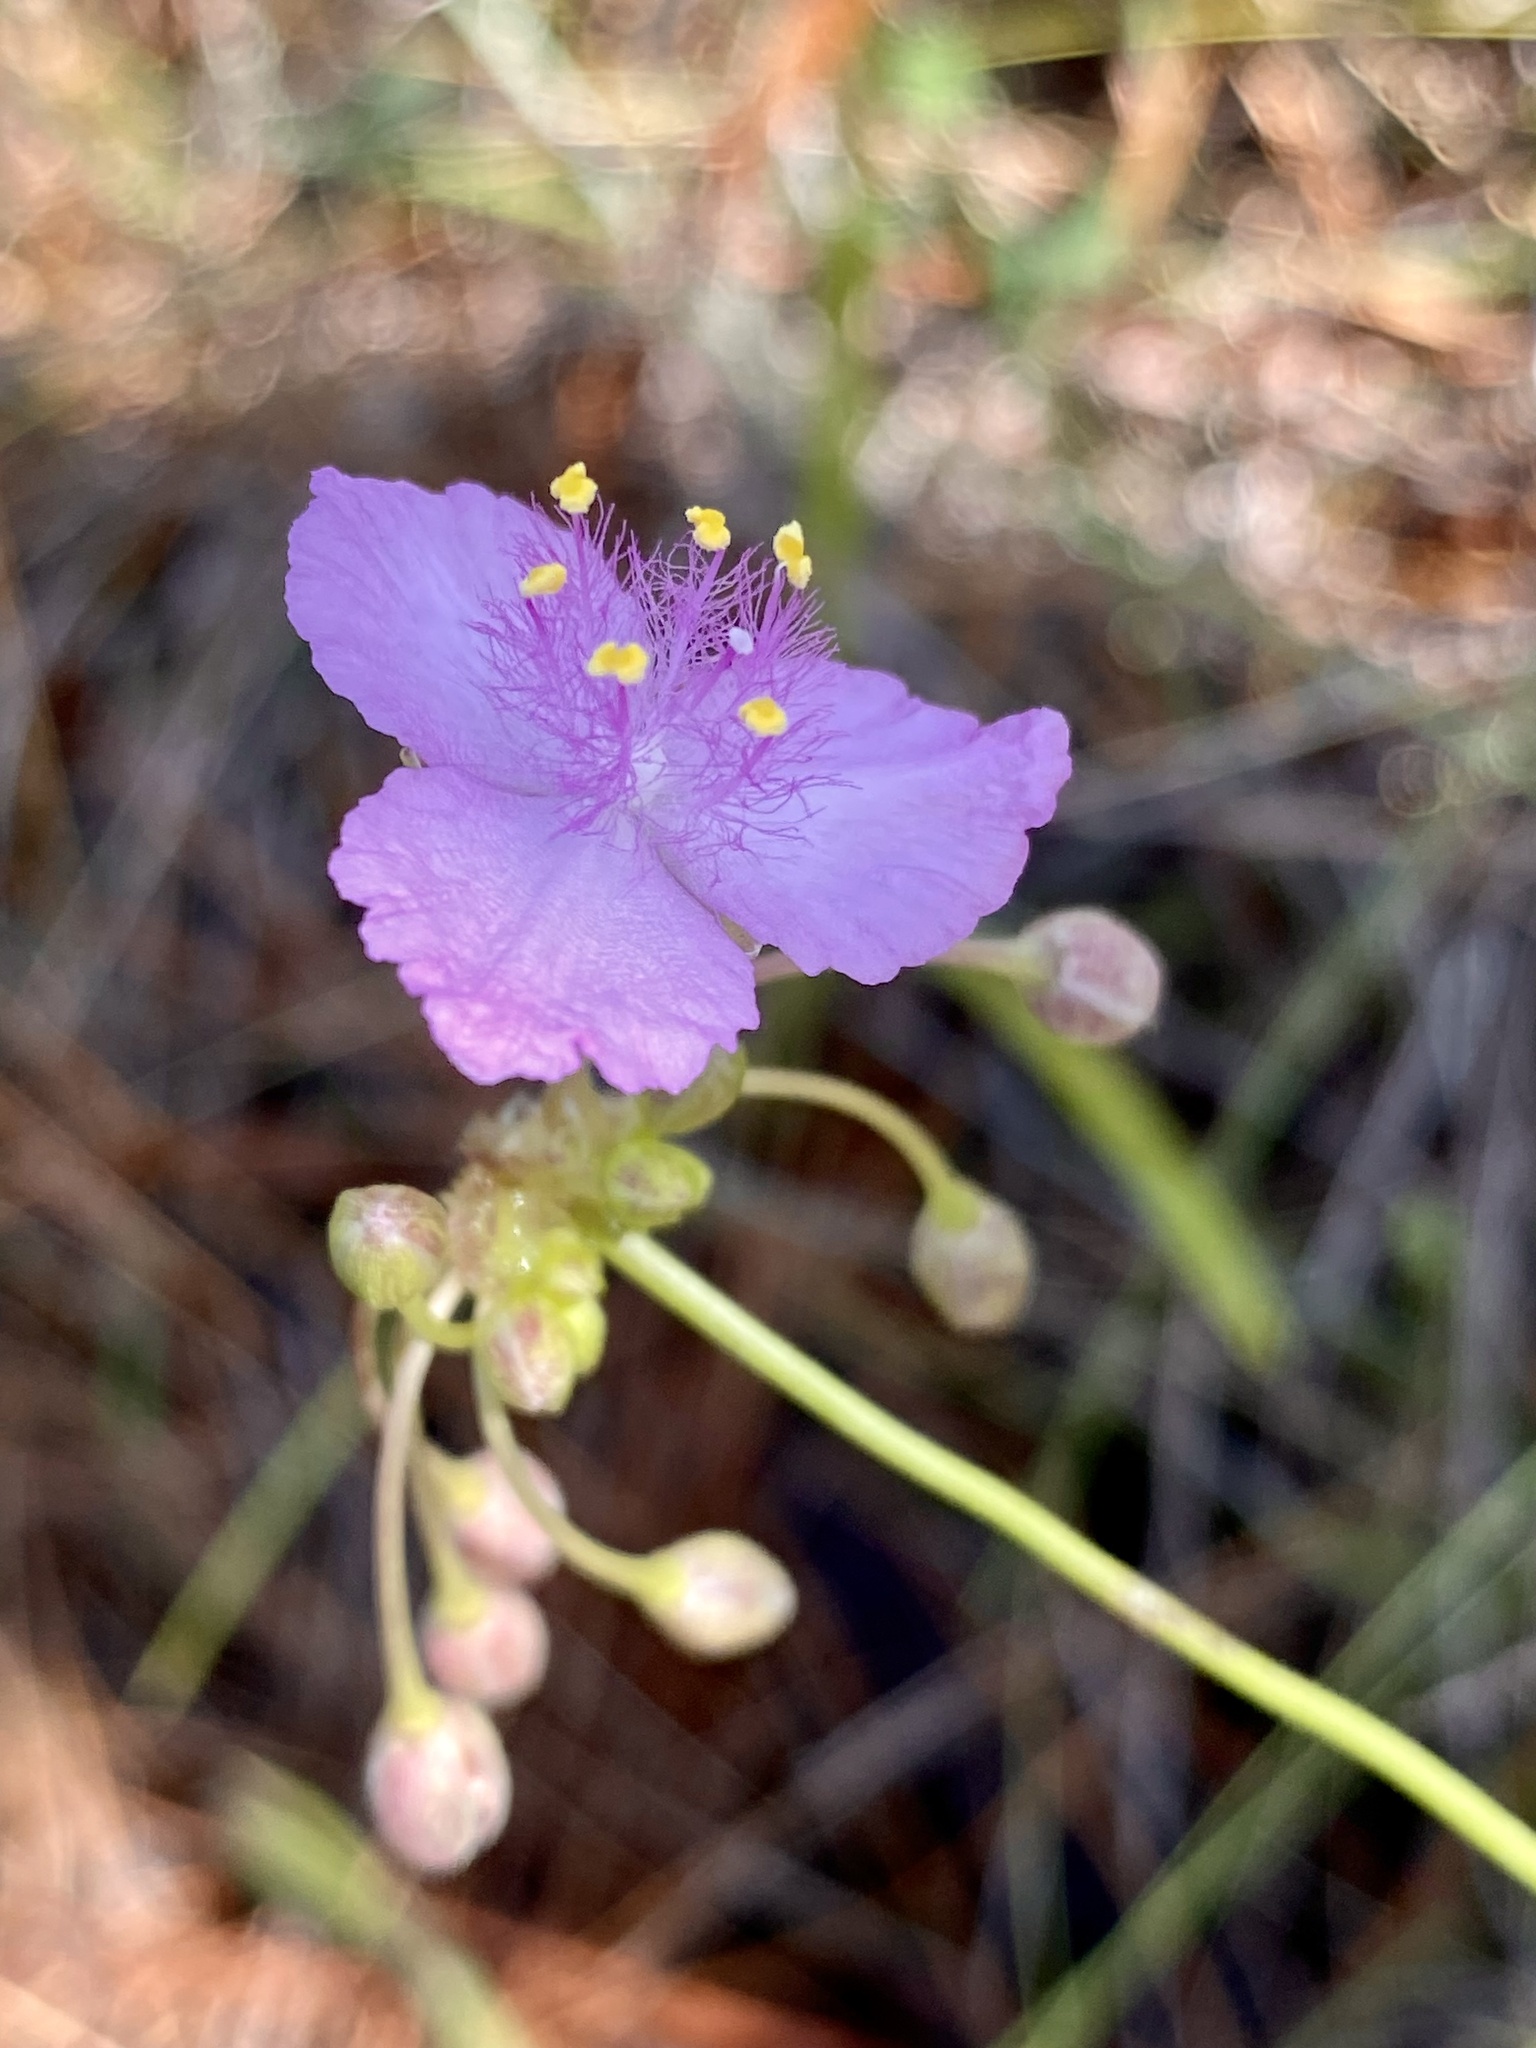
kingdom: Plantae
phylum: Tracheophyta
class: Liliopsida
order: Commelinales
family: Commelinaceae
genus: Callisia
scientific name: Callisia ornata
